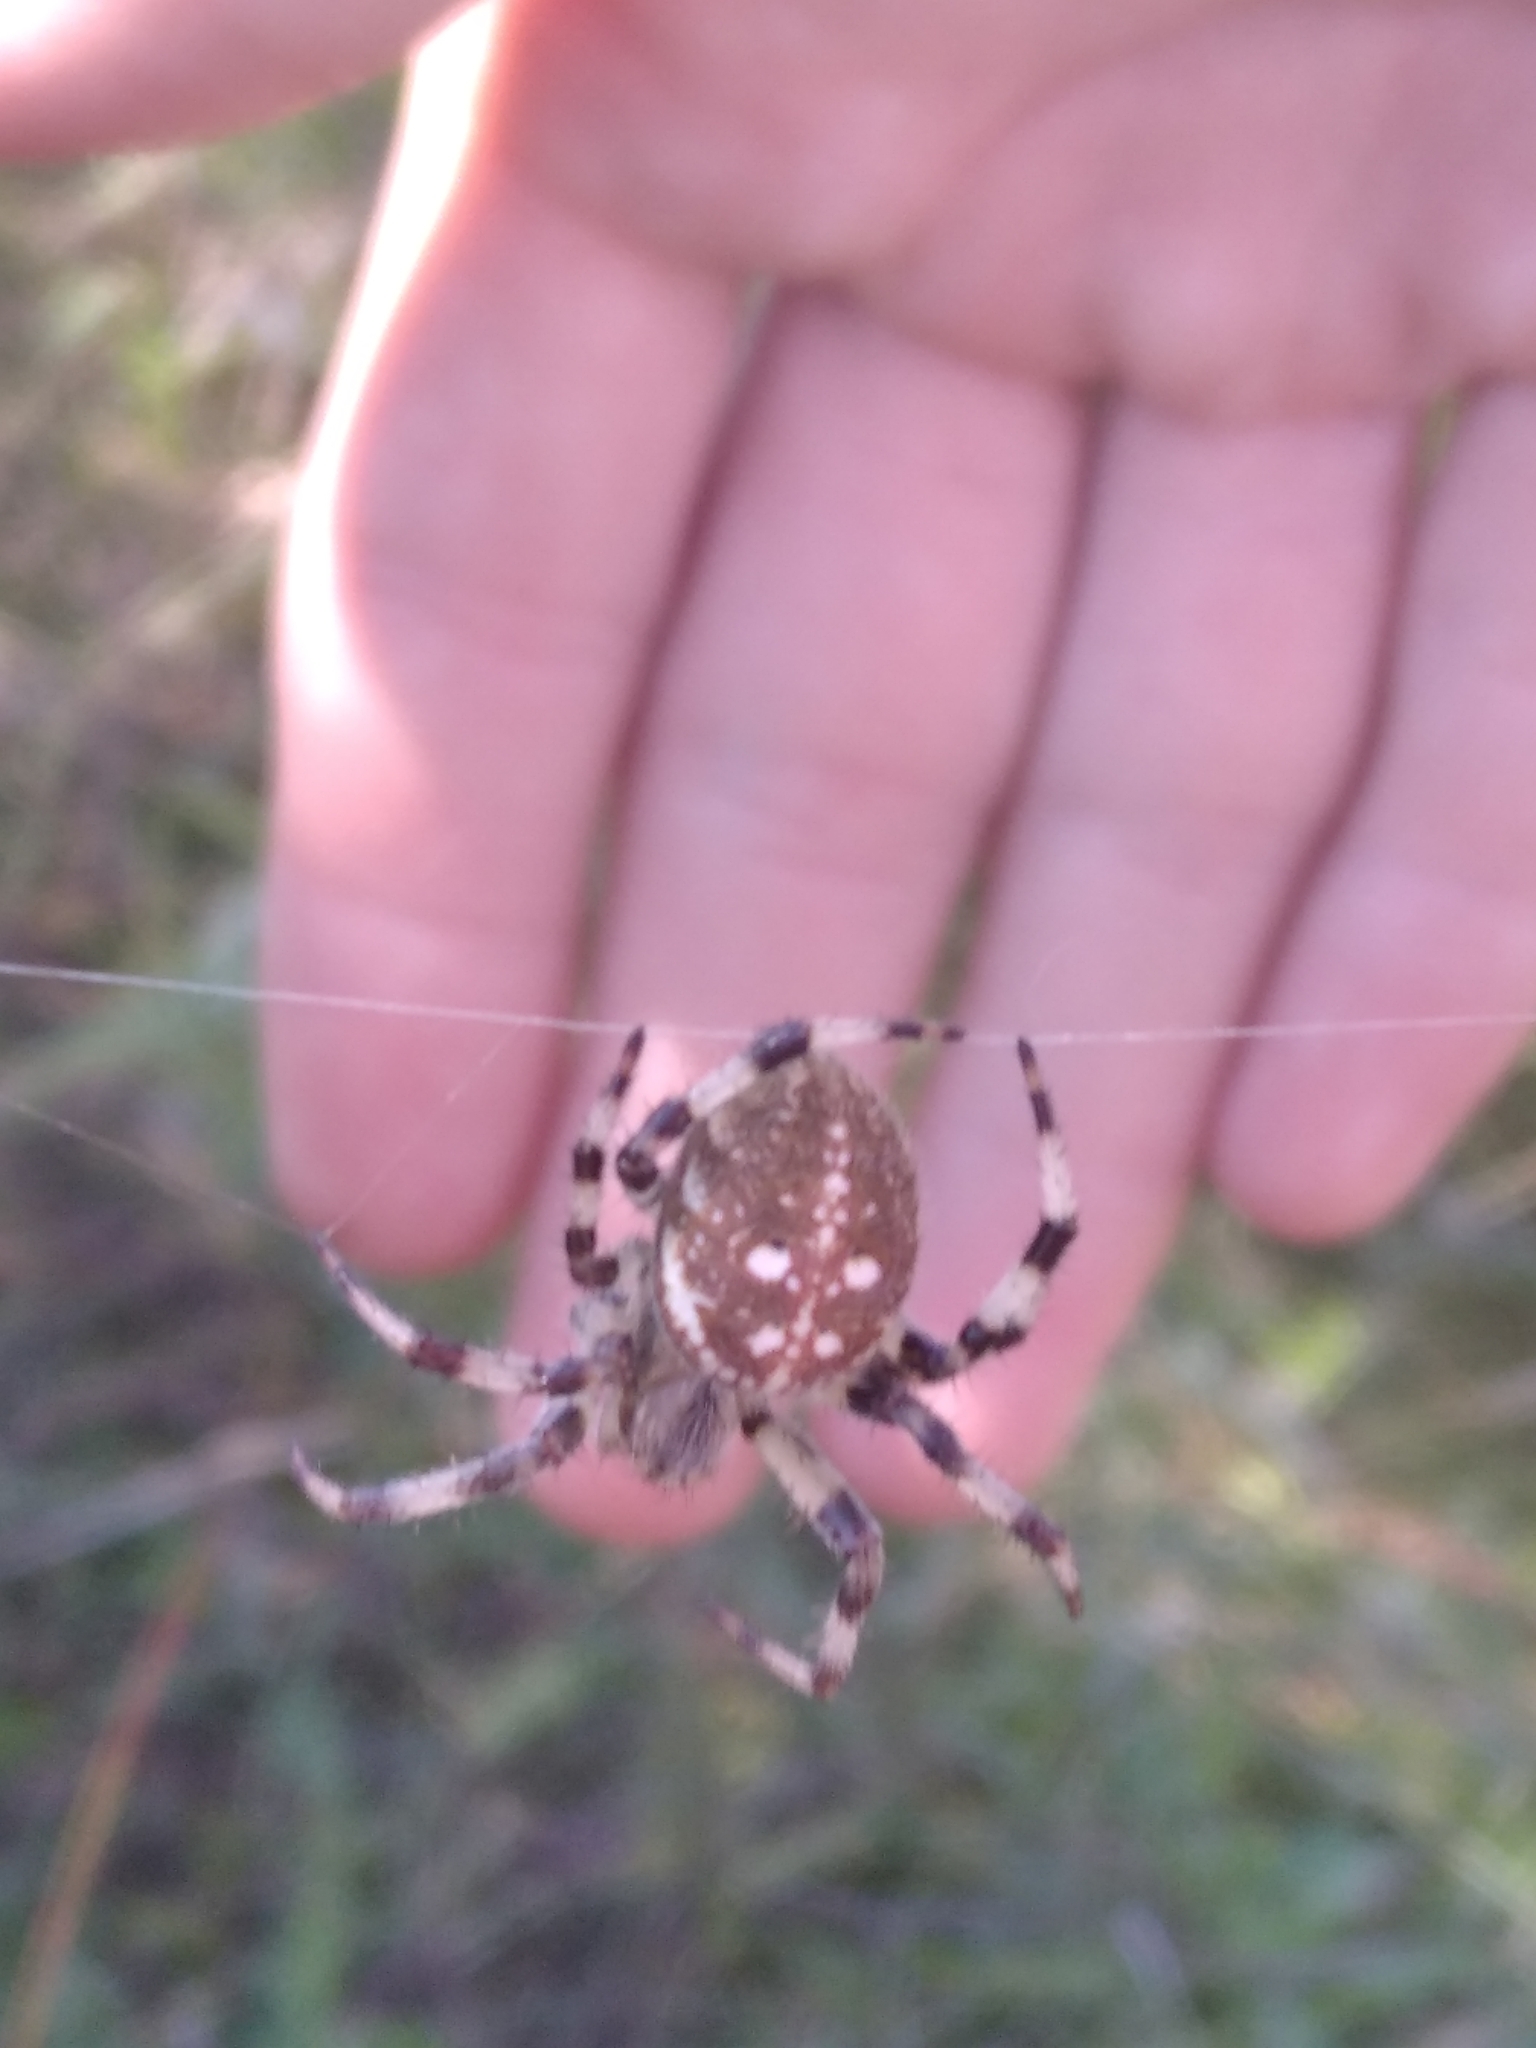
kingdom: Animalia
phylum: Arthropoda
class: Arachnida
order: Araneae
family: Araneidae
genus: Araneus
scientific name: Araneus quadratus
